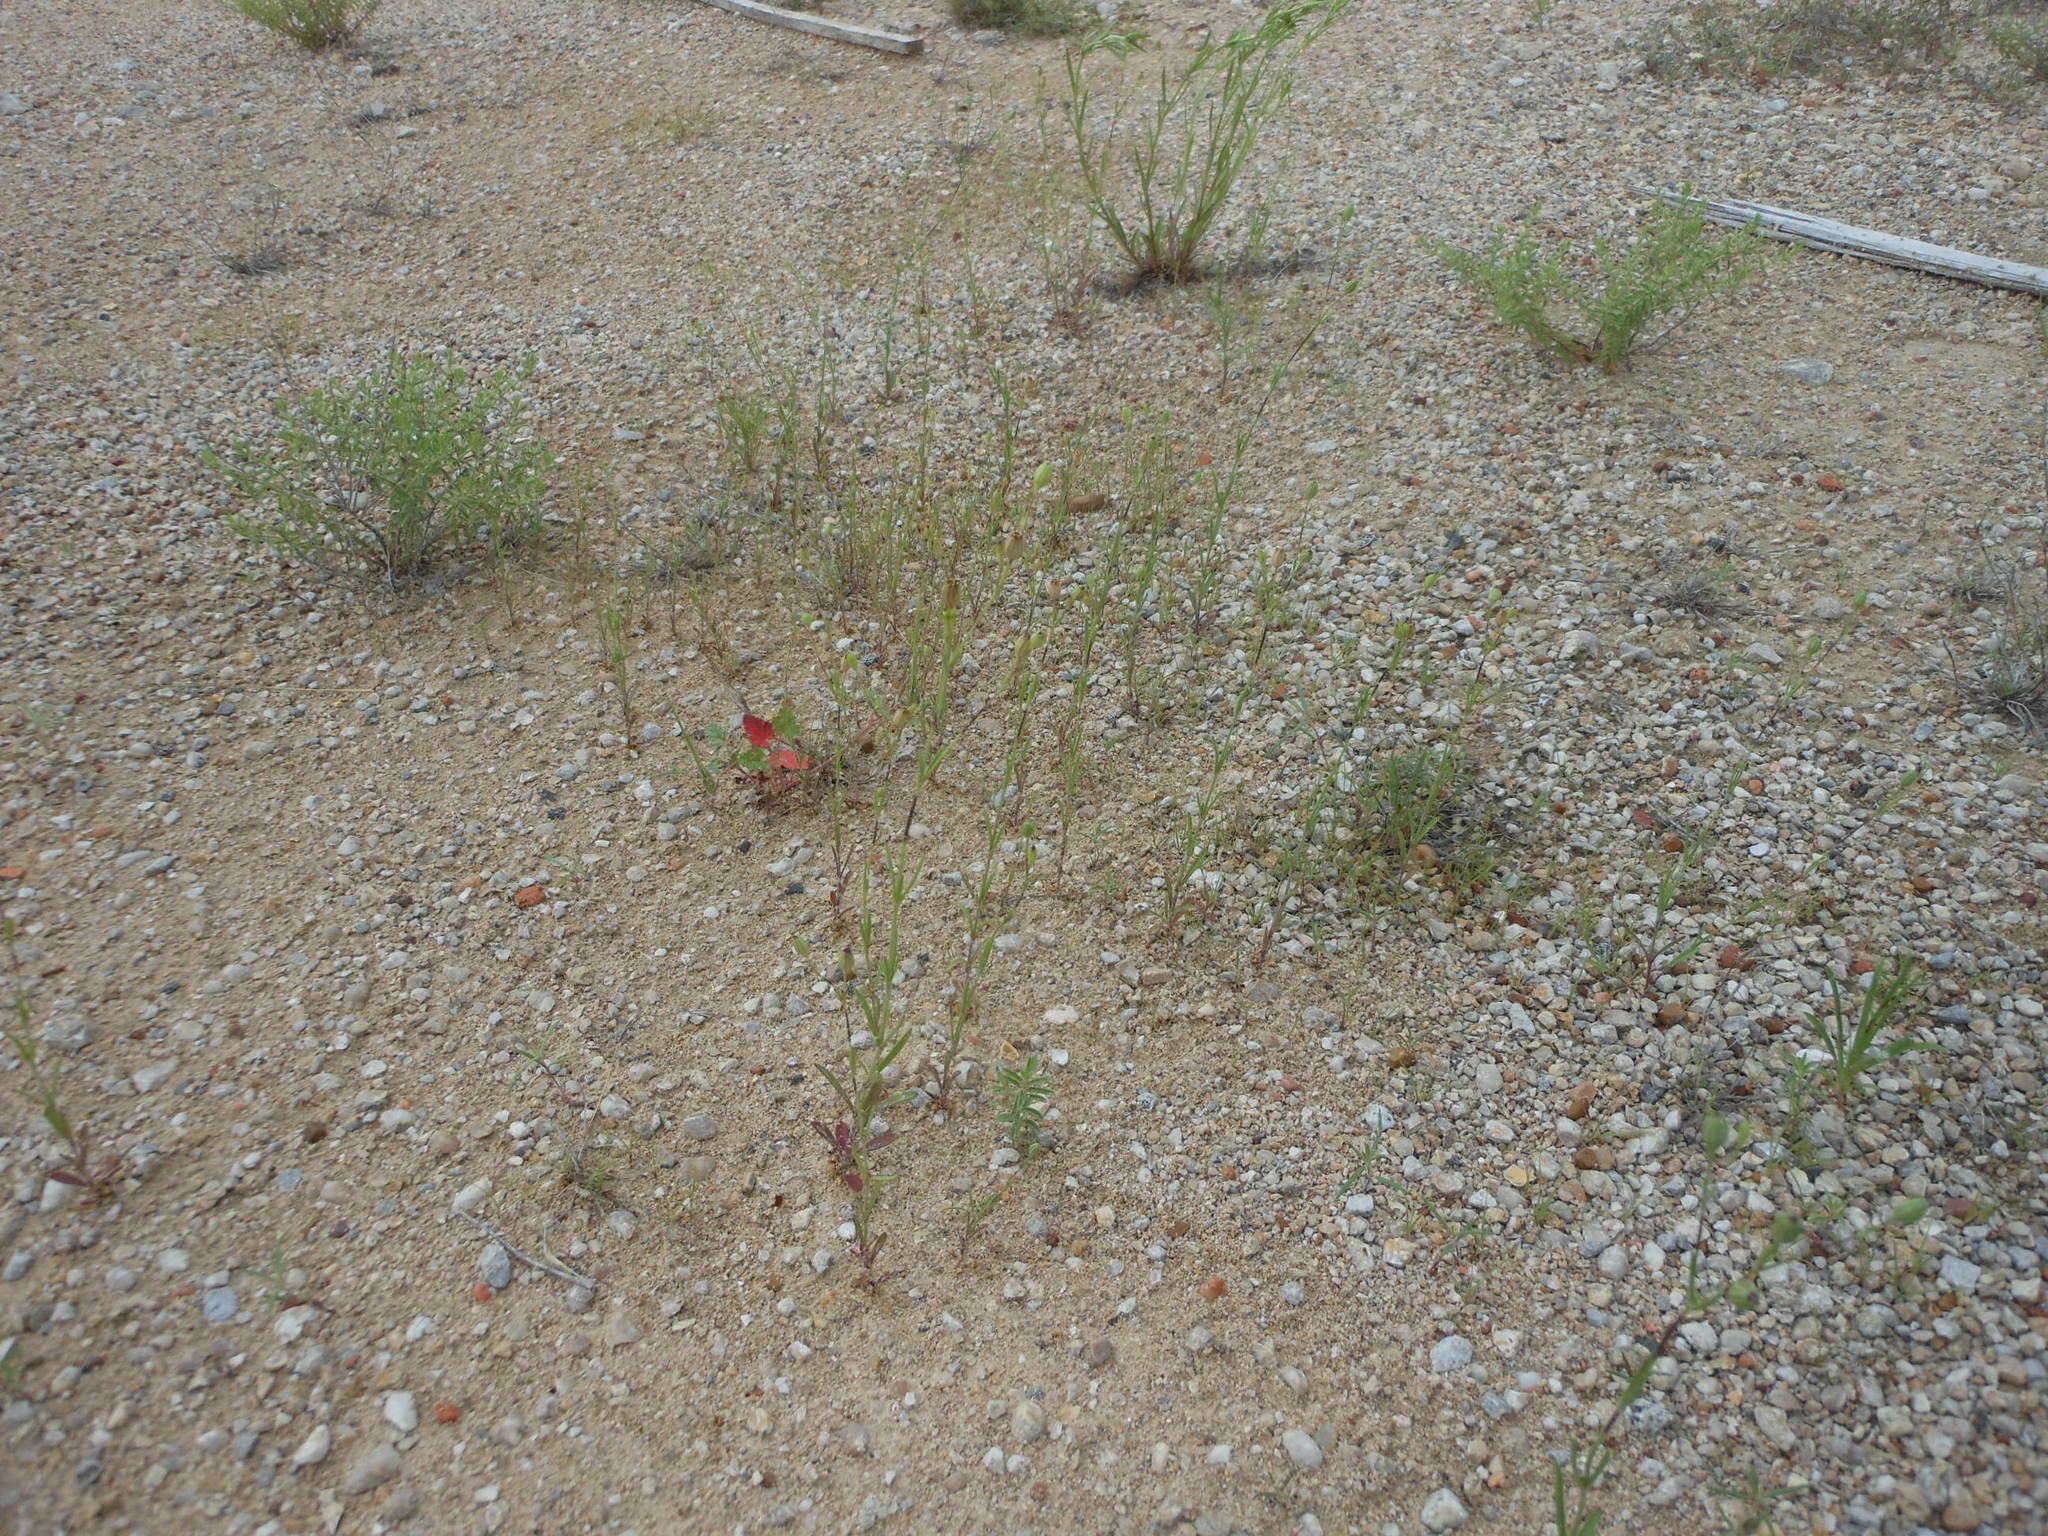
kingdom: Plantae
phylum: Tracheophyta
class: Magnoliopsida
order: Caryophyllales
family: Caryophyllaceae
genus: Silene
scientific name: Silene antirrhina
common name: Sleepy catchfly
